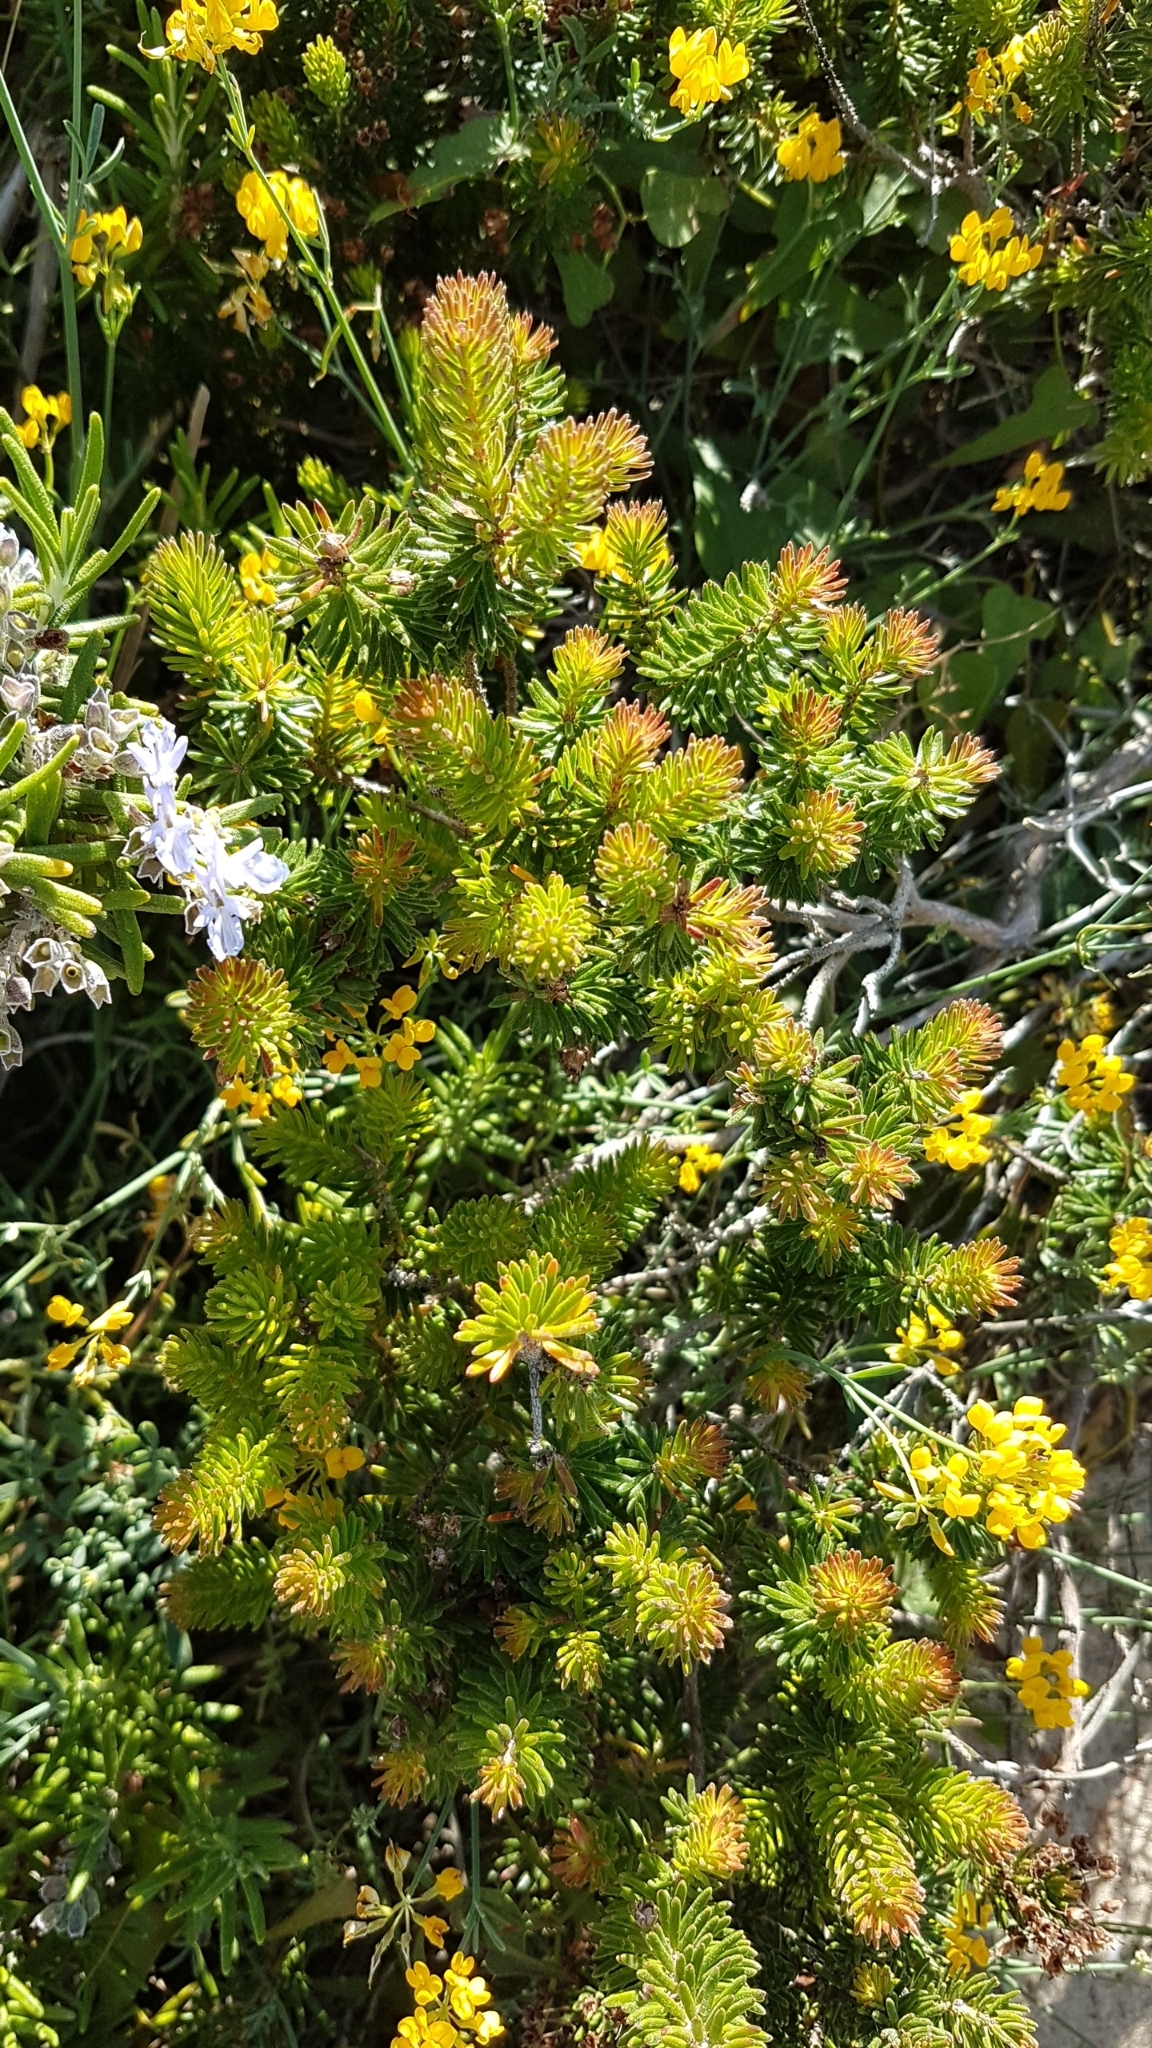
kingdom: Plantae
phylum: Tracheophyta
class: Magnoliopsida
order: Ericales
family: Ericaceae
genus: Erica
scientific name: Erica multiflora
